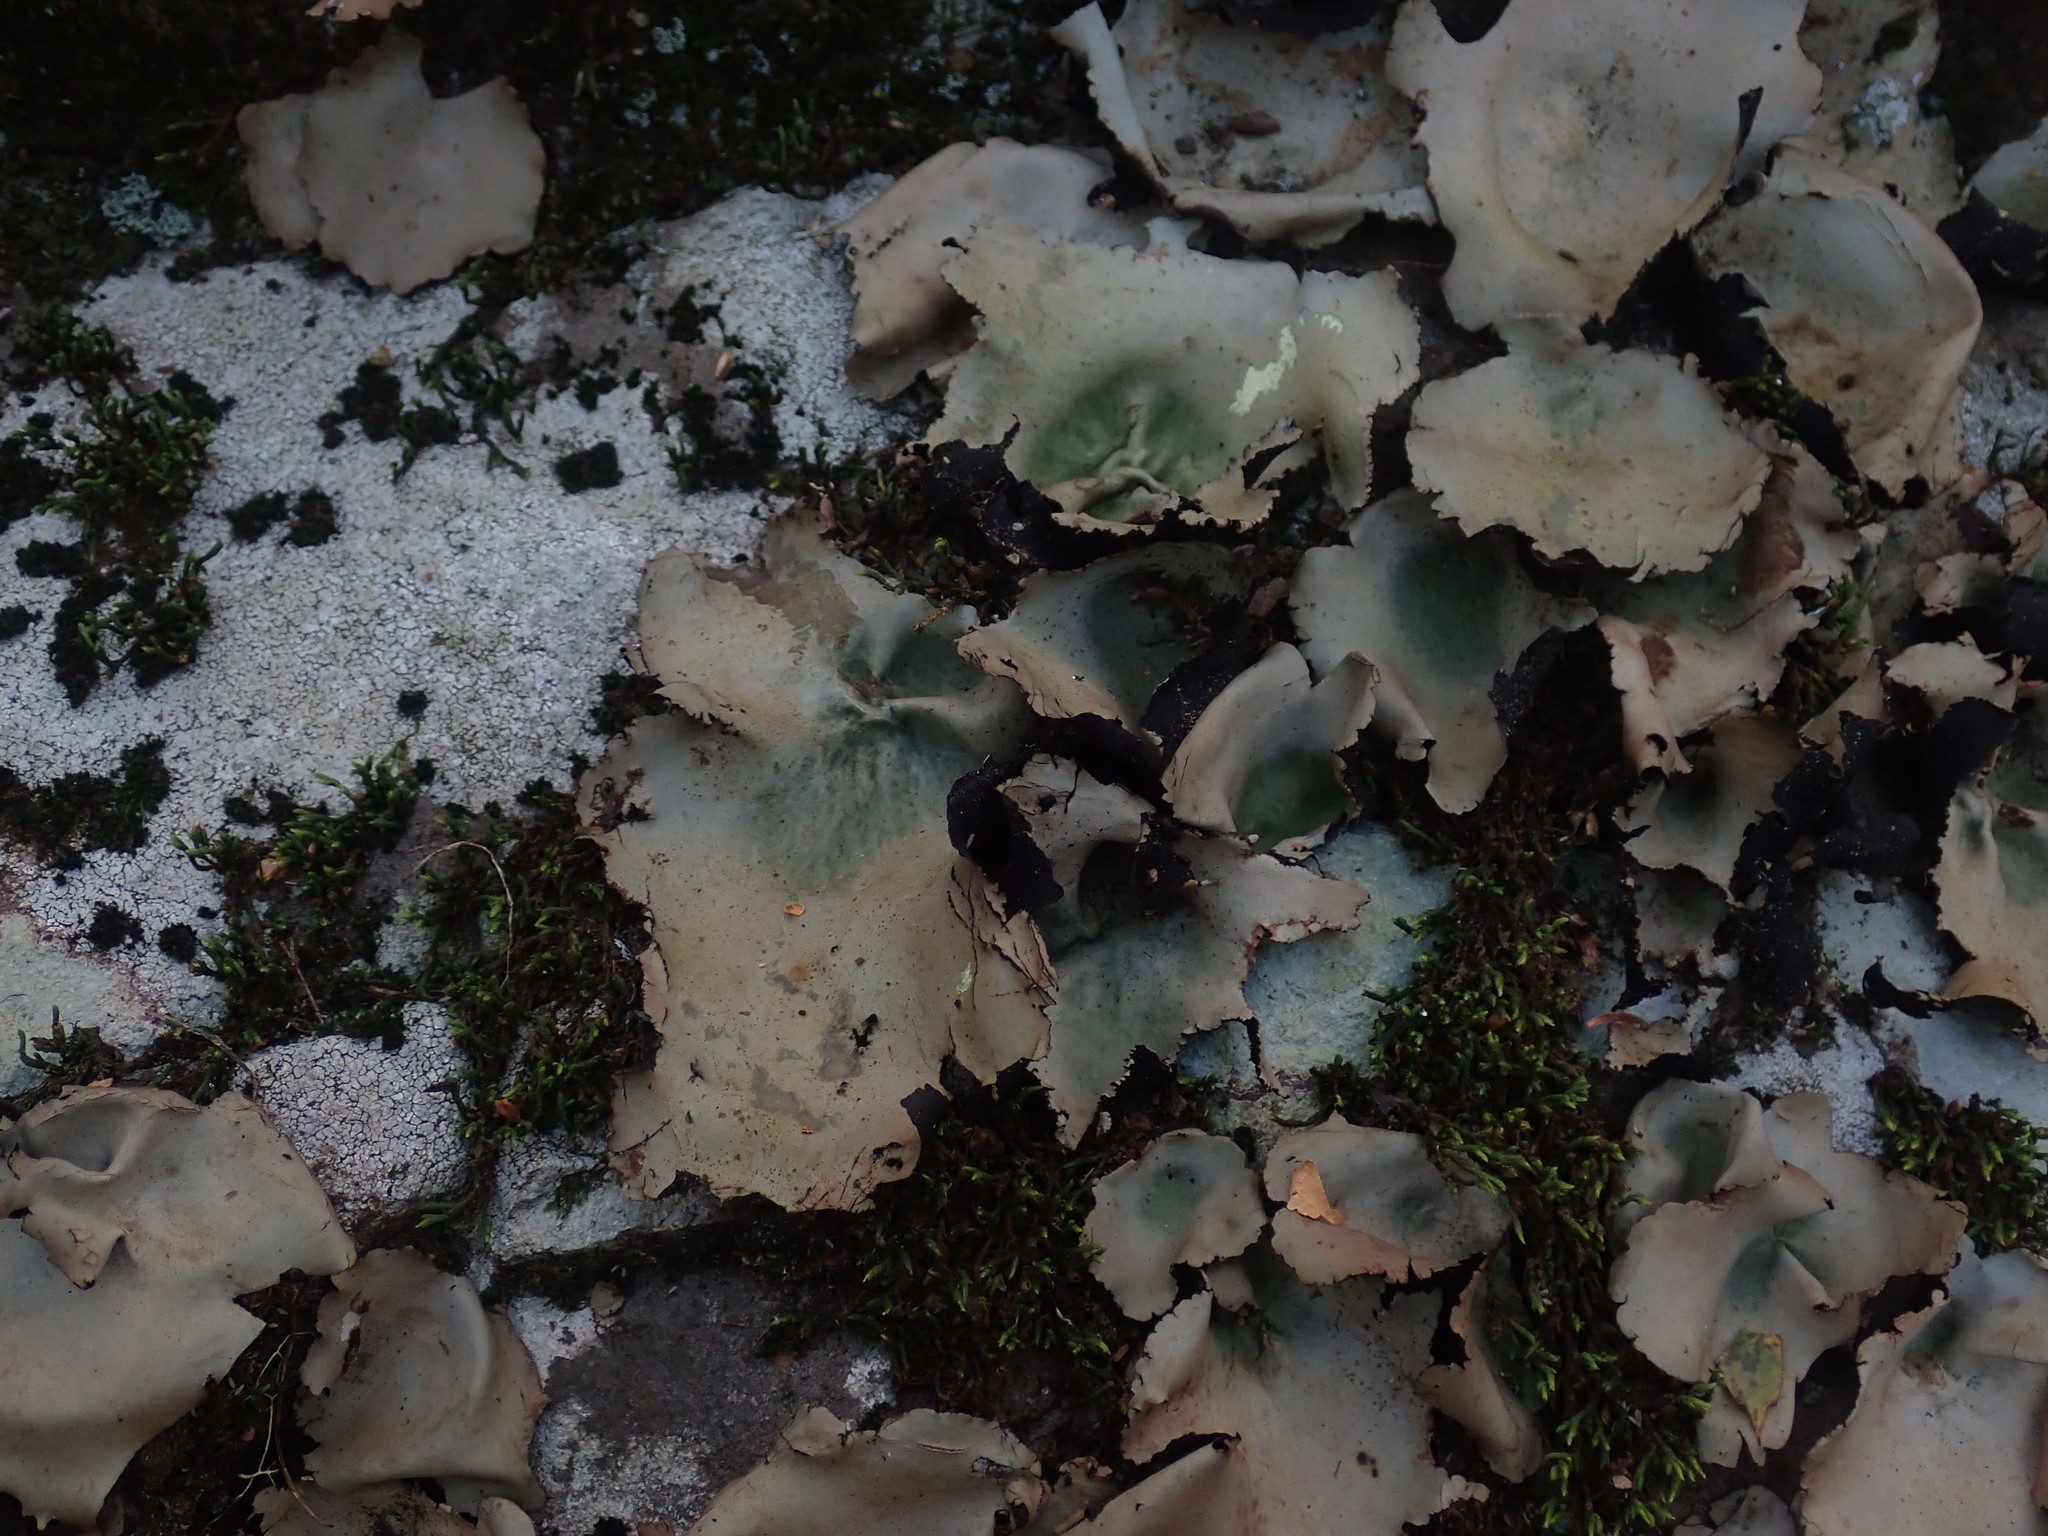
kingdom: Fungi
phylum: Ascomycota
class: Lecanoromycetes
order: Umbilicariales
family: Umbilicariaceae
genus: Umbilicaria
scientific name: Umbilicaria mammulata
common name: Smooth rock tripe
